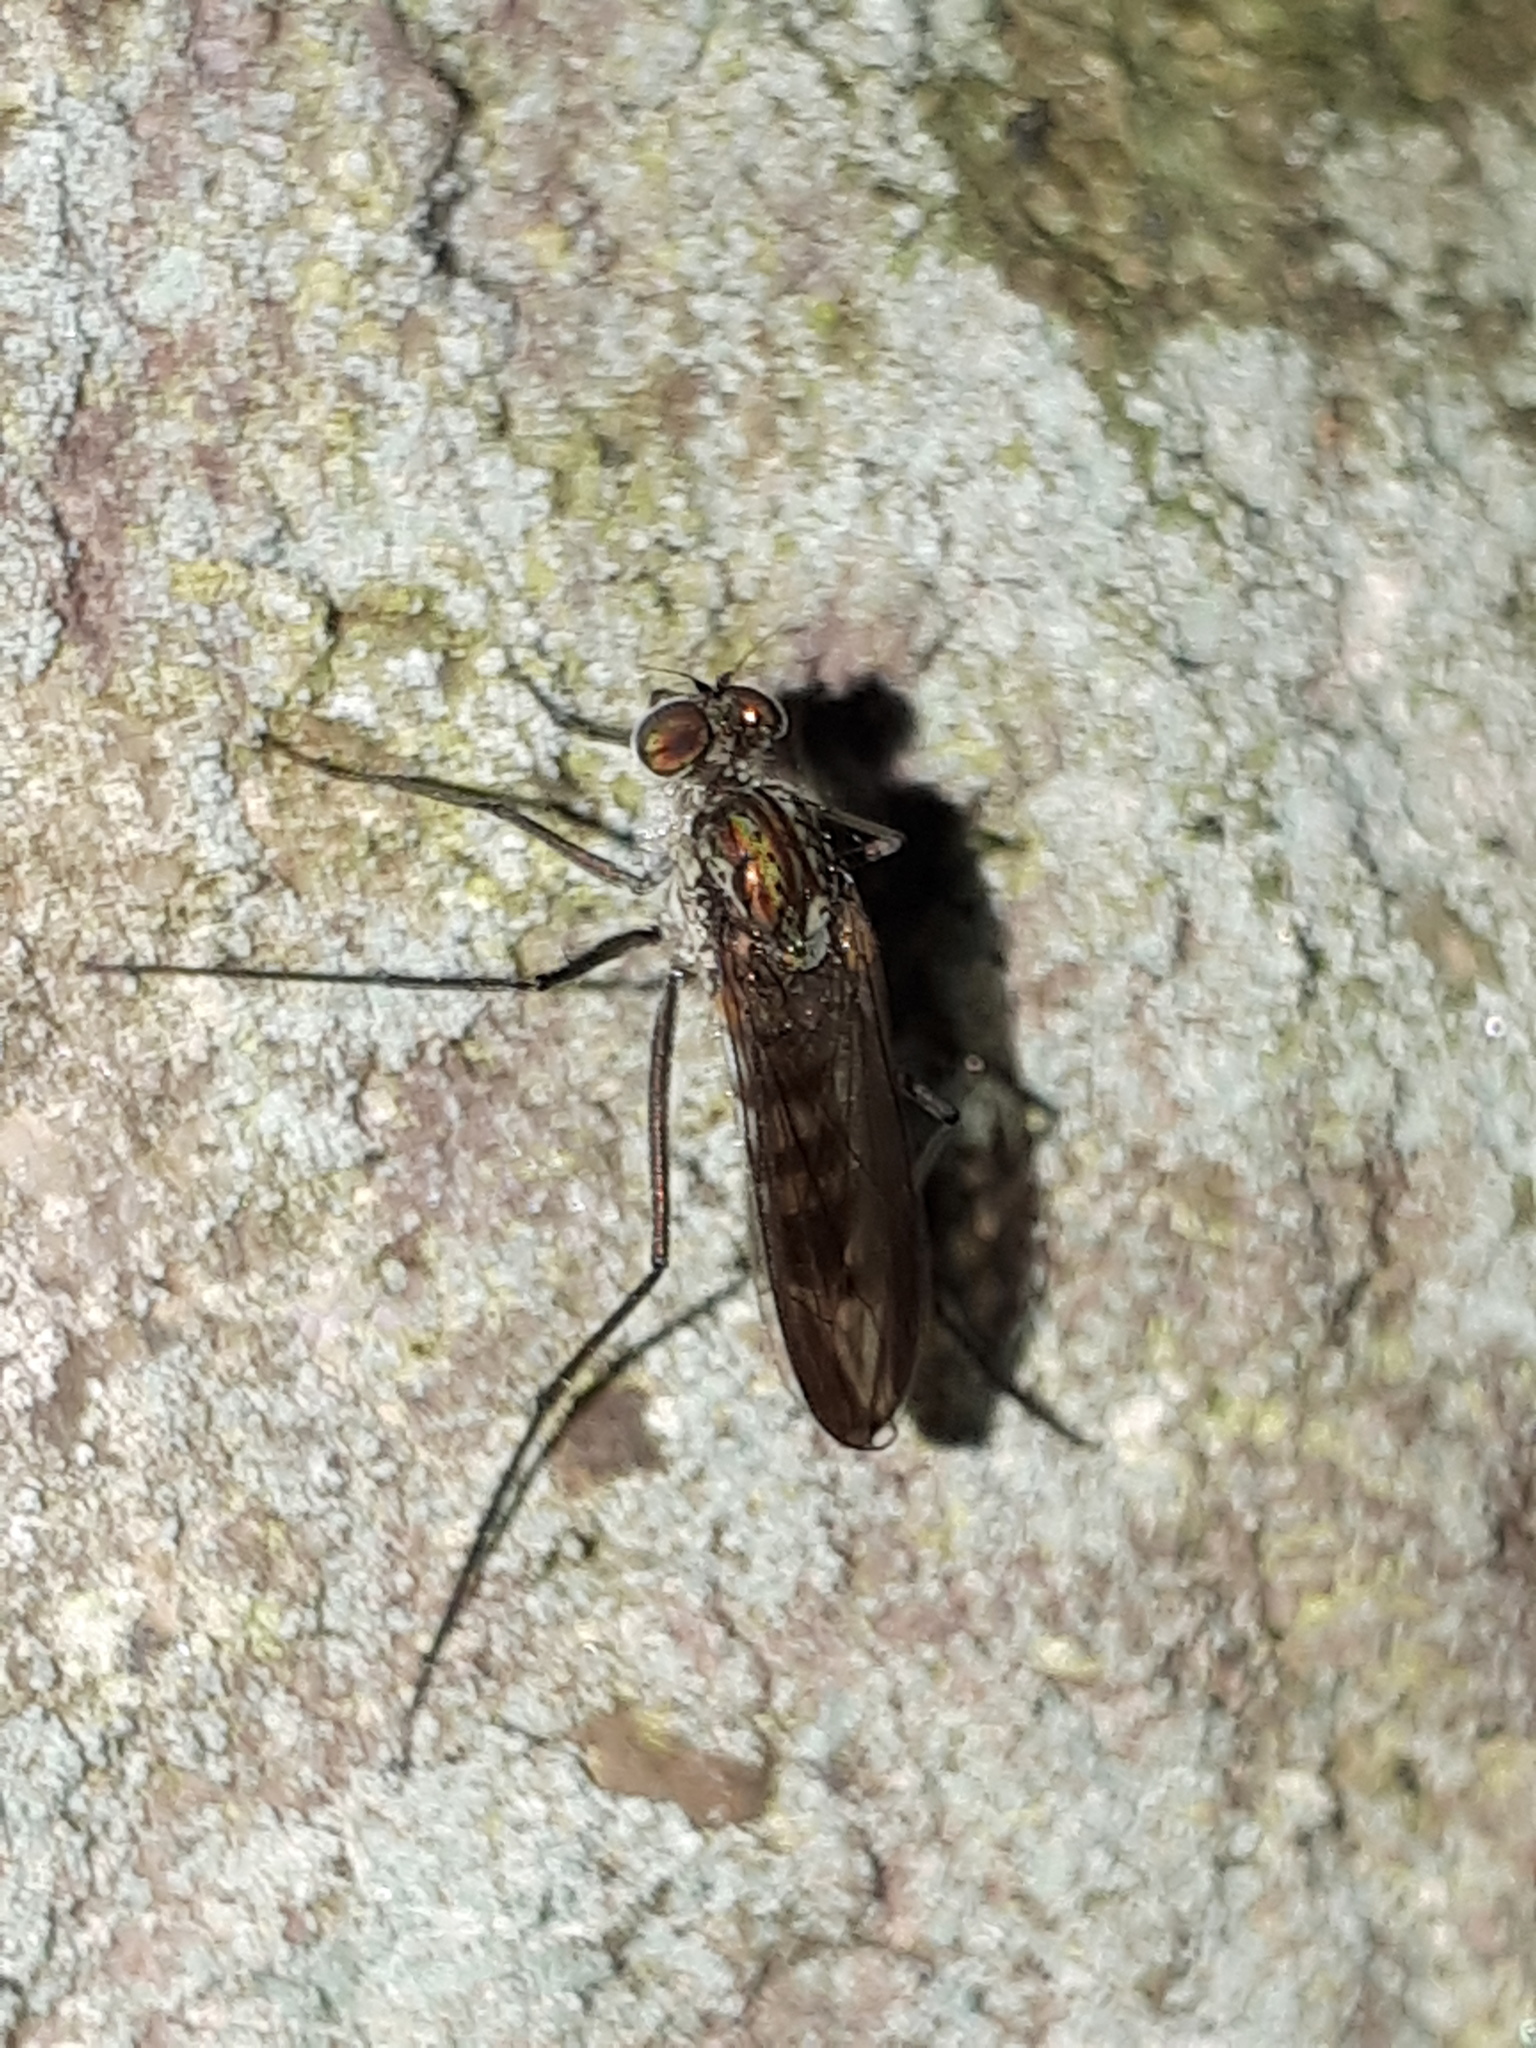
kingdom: Animalia
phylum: Arthropoda
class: Insecta
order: Diptera
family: Dolichopodidae
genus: Liancalus
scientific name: Liancalus virens
